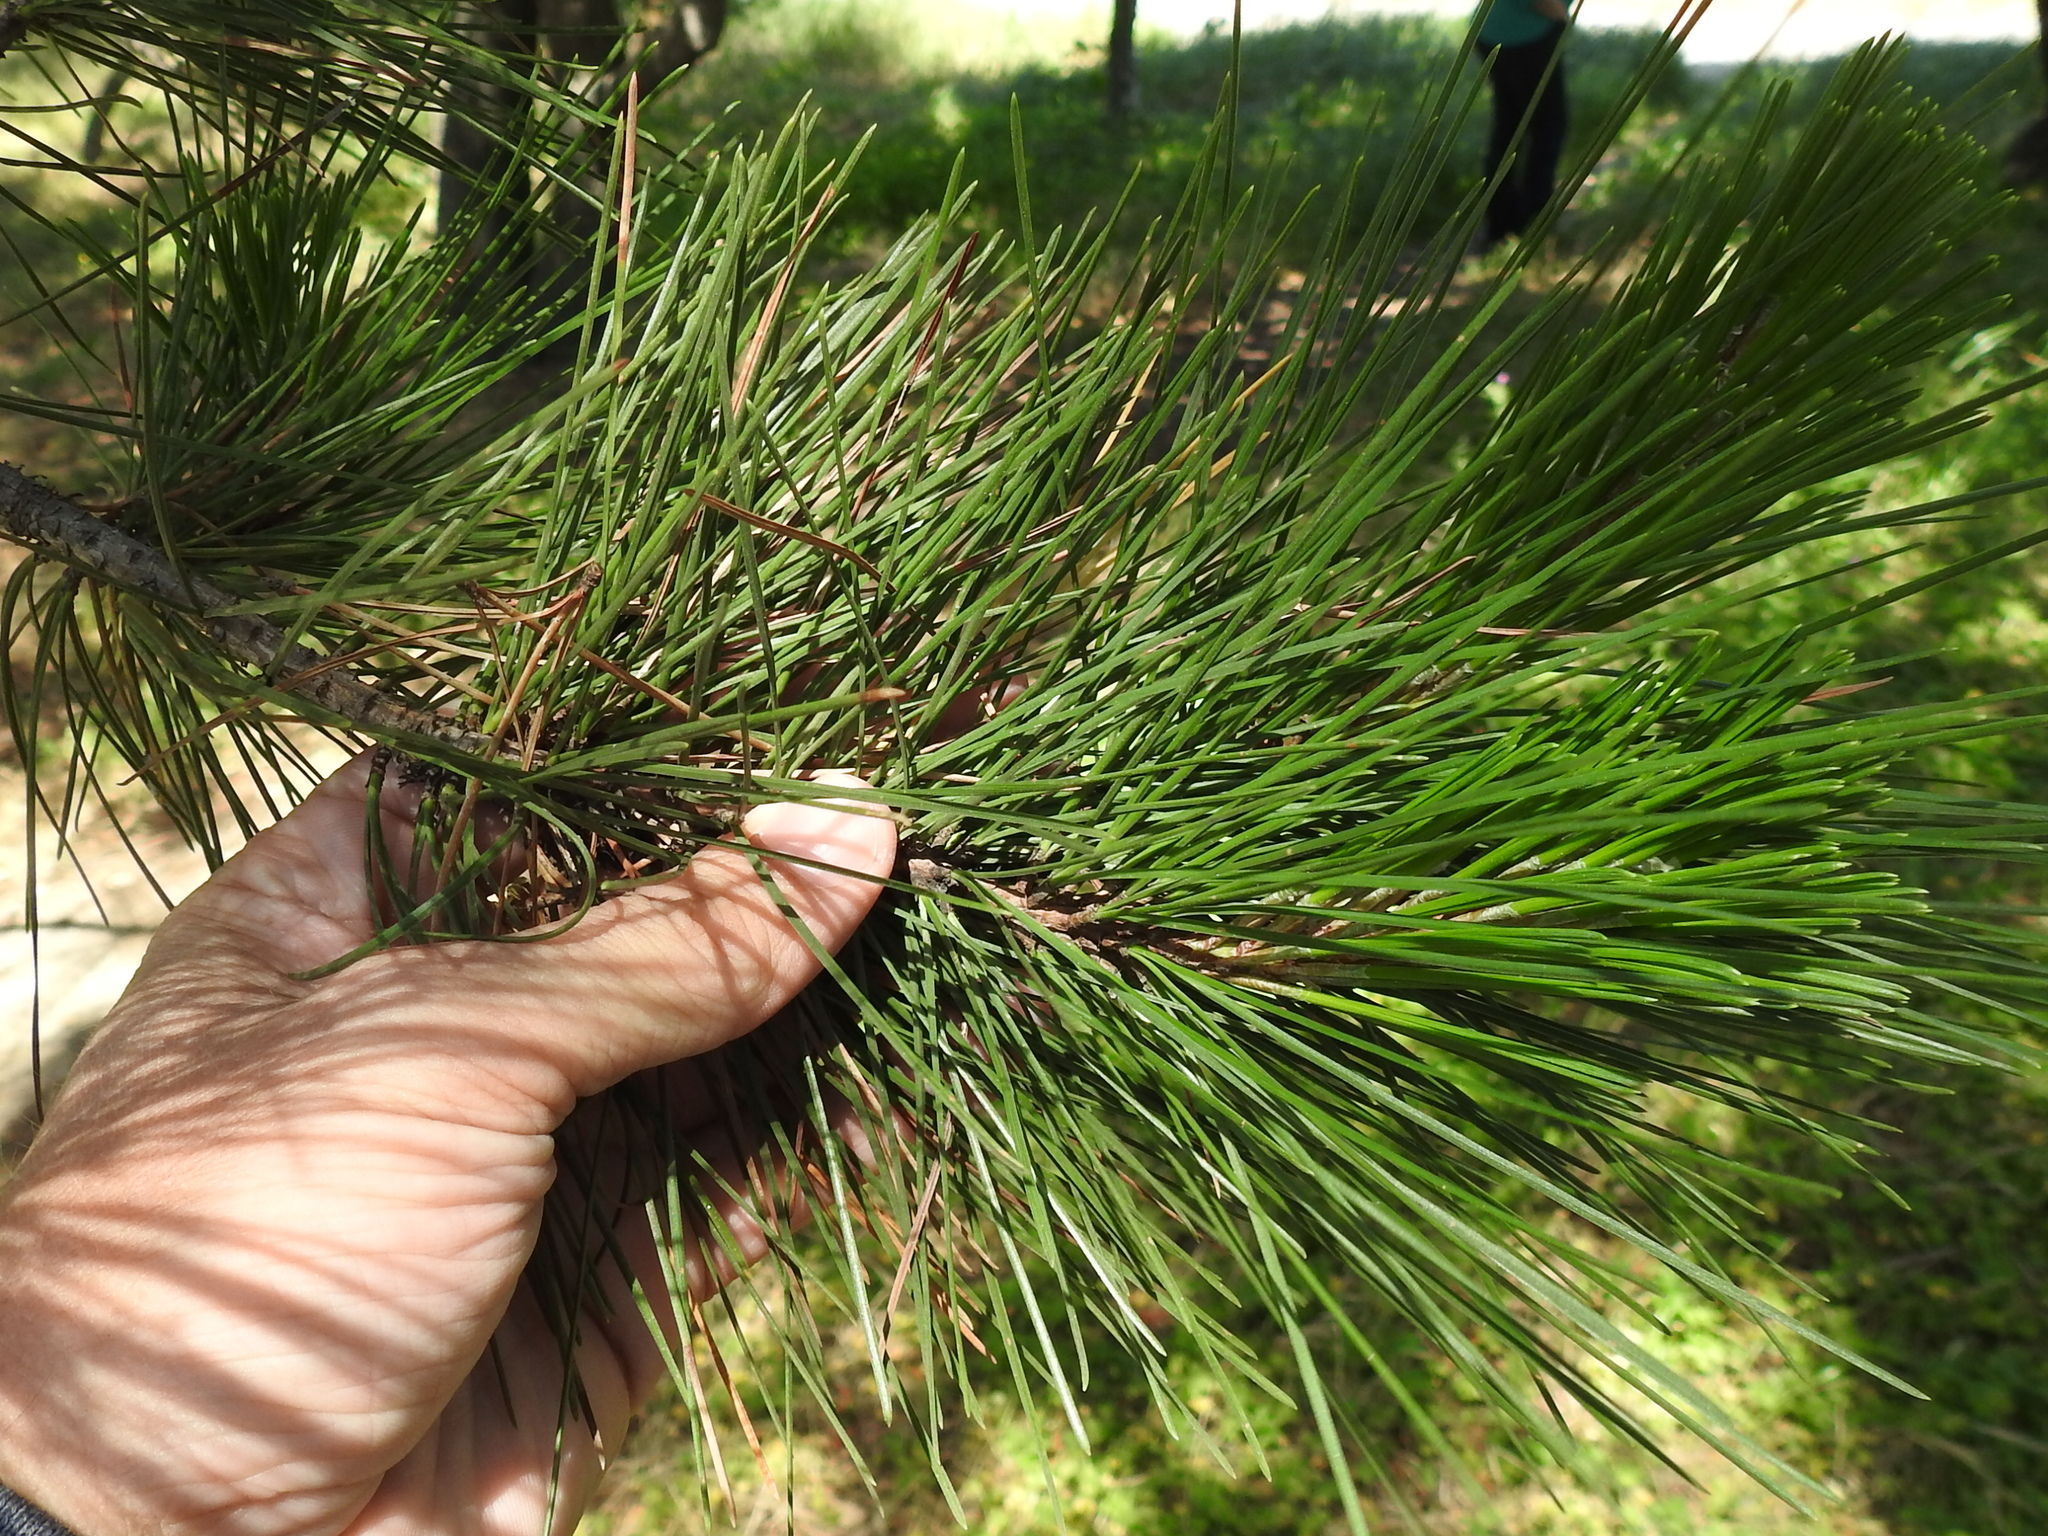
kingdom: Plantae
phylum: Tracheophyta
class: Pinopsida
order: Pinales
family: Pinaceae
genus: Pinus
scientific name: Pinus radiata
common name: Monterey pine
